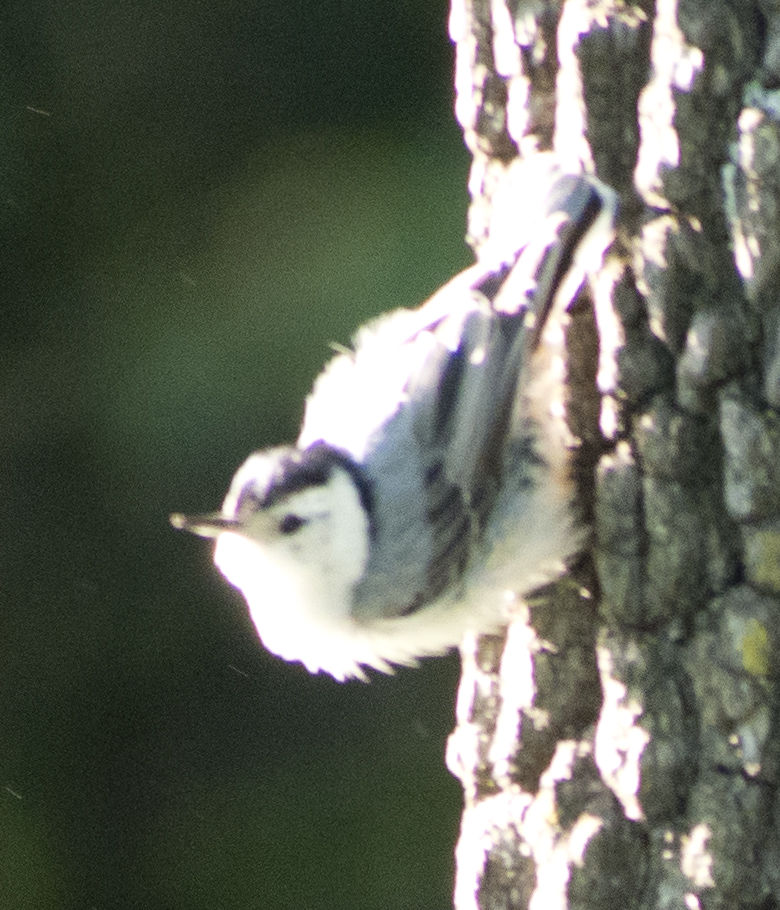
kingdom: Animalia
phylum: Chordata
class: Aves
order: Passeriformes
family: Sittidae
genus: Sitta
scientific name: Sitta carolinensis
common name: White-breasted nuthatch
